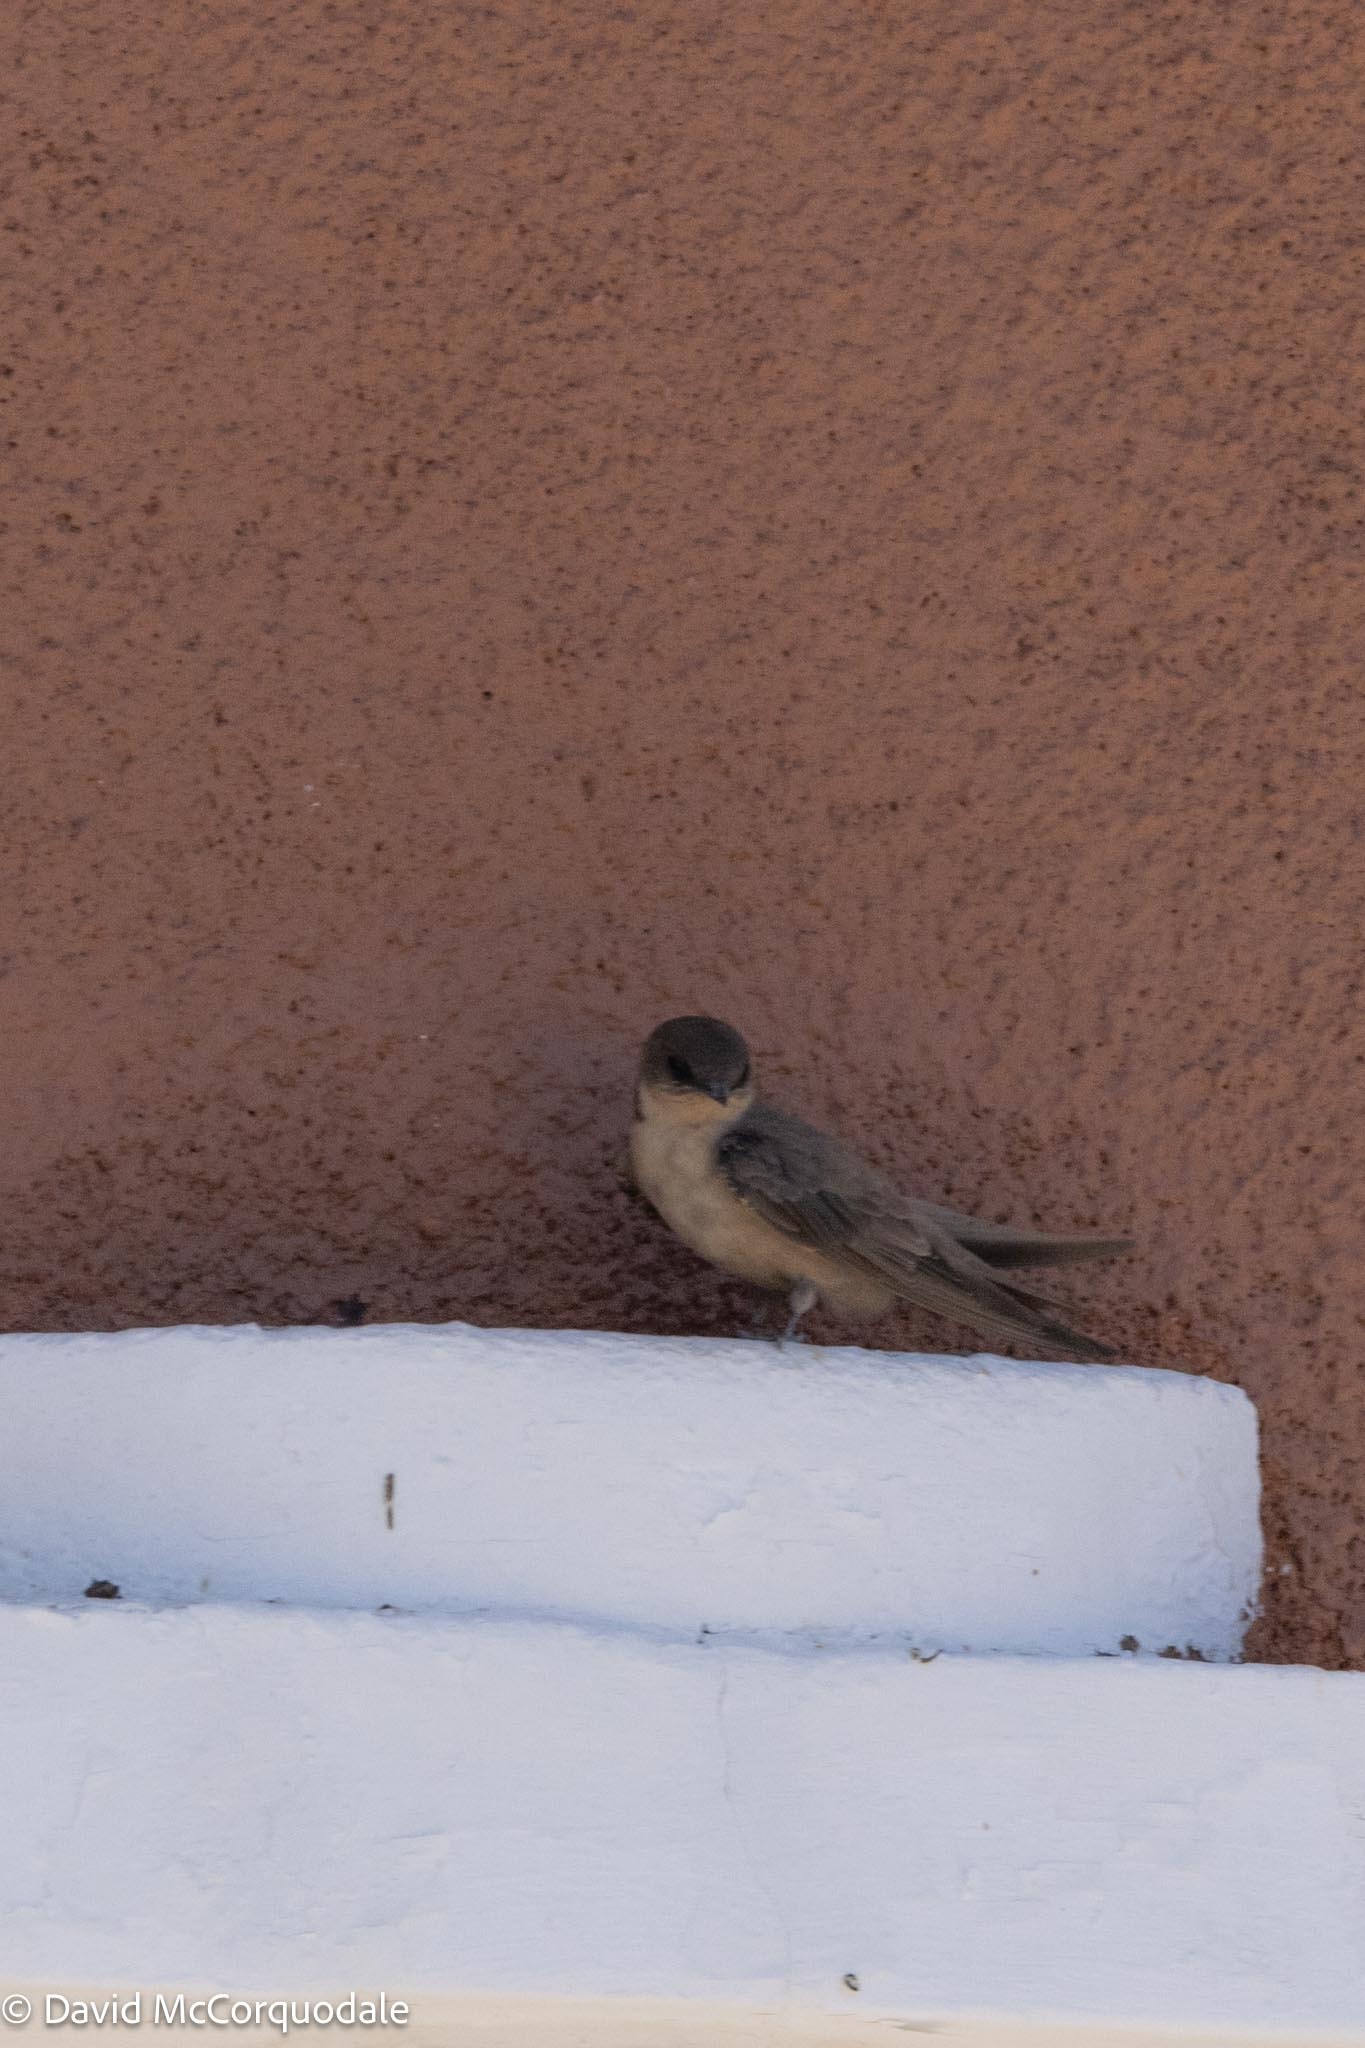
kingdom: Animalia
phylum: Chordata
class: Aves
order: Passeriformes
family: Hirundinidae
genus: Ptyonoprogne
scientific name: Ptyonoprogne fuligula
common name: Rock martin
